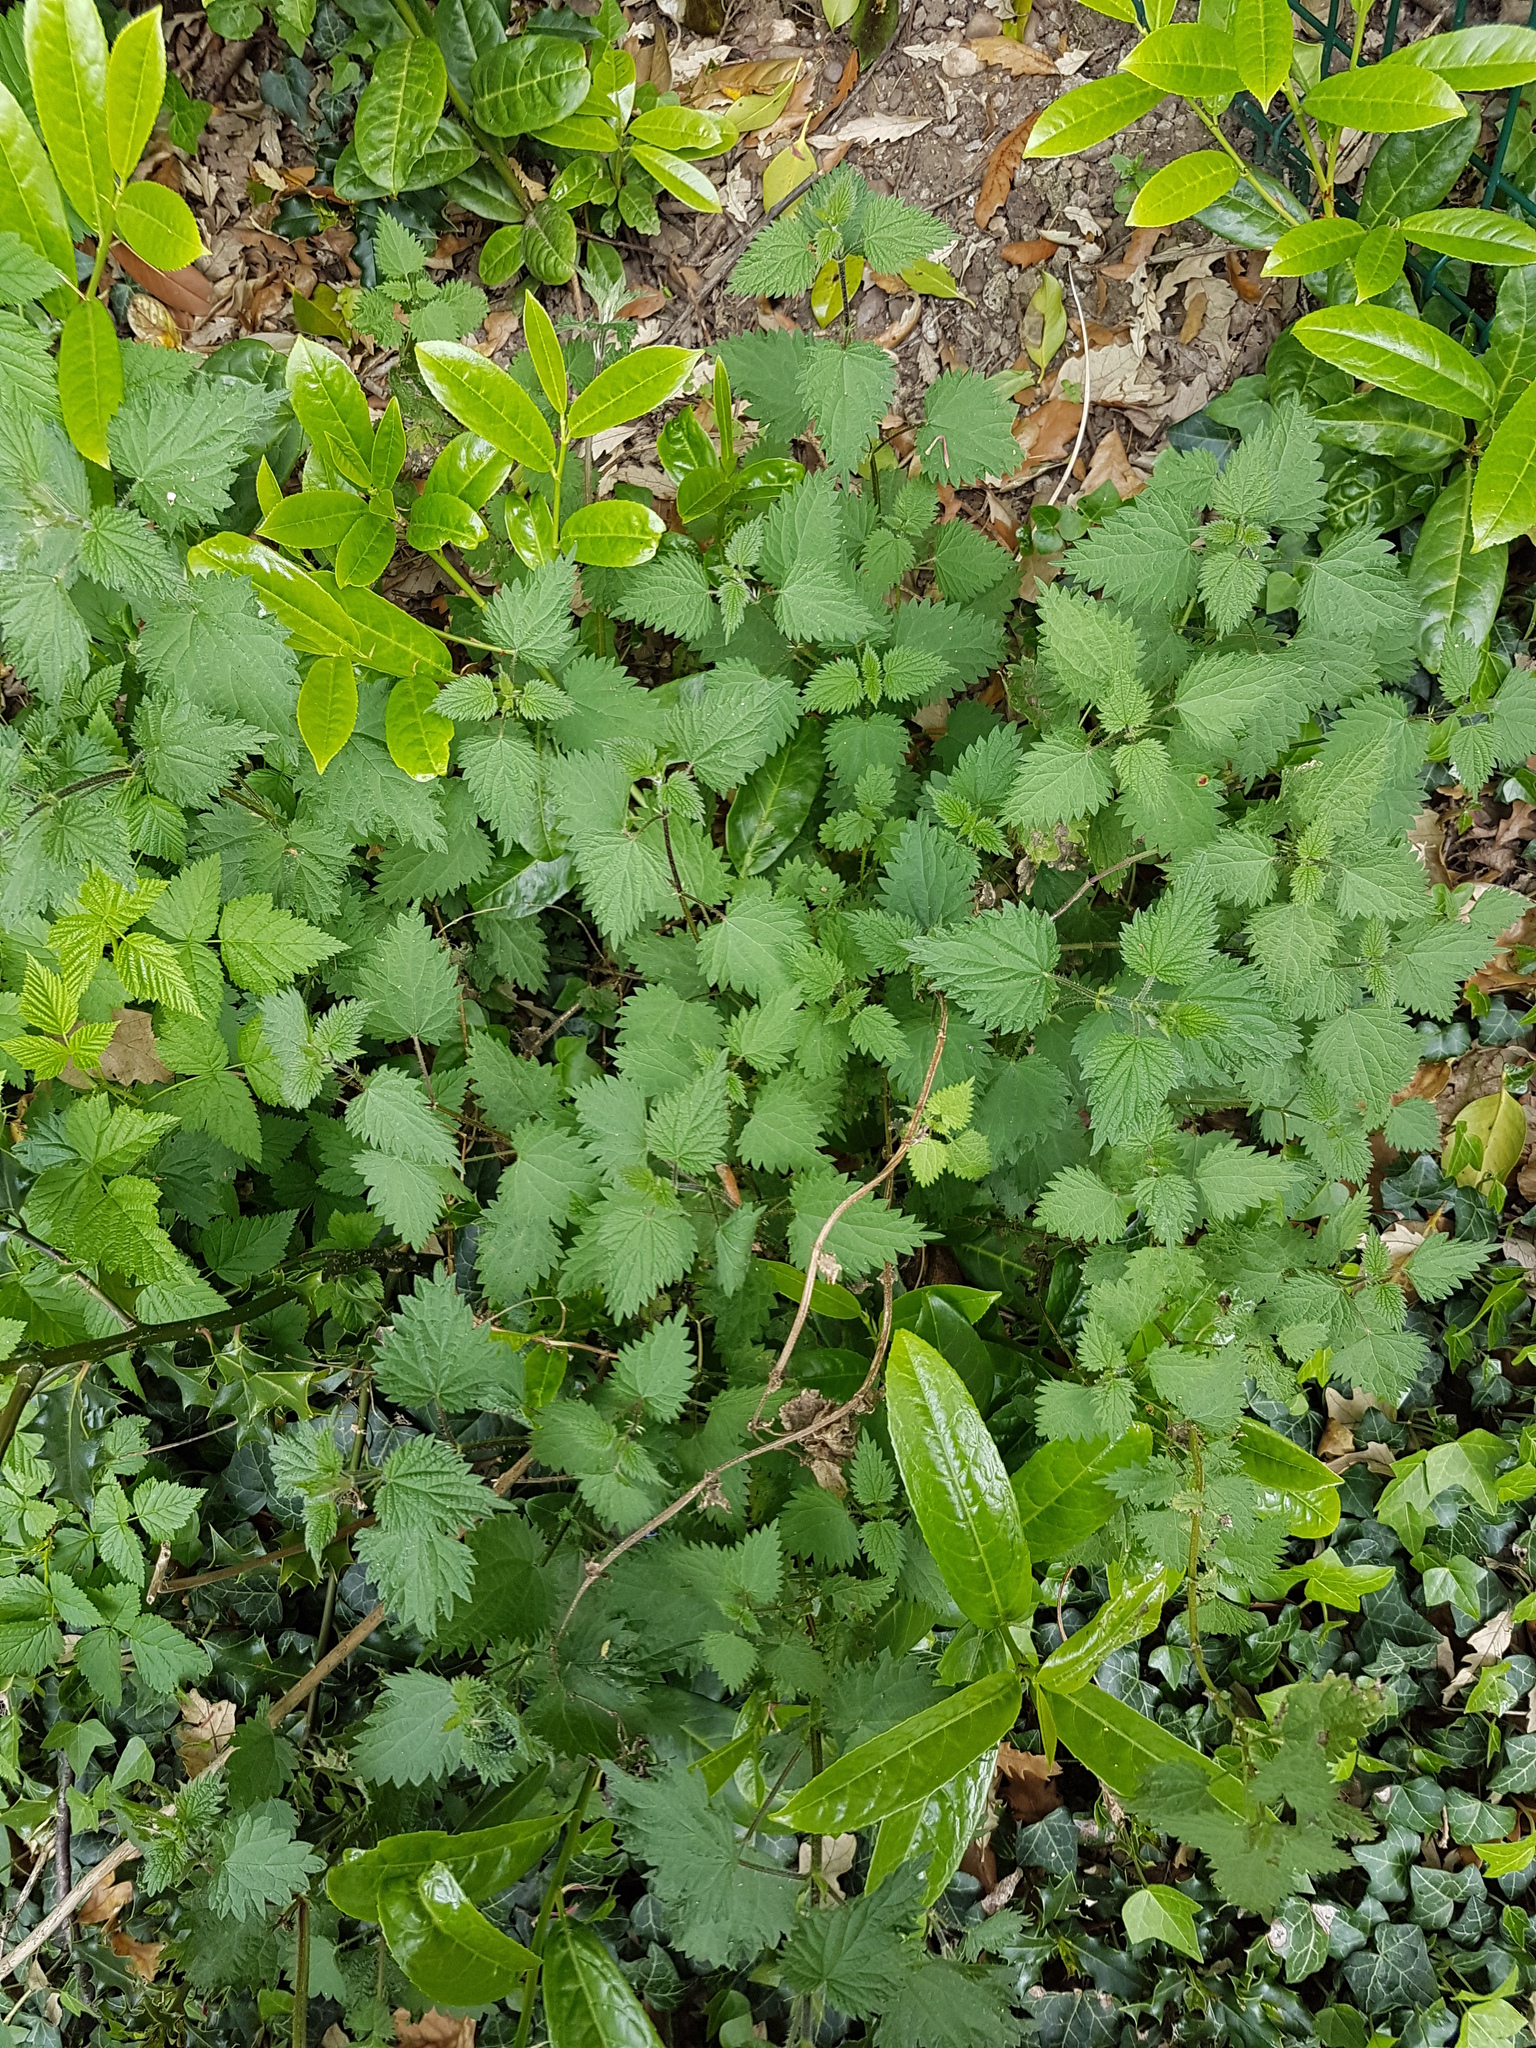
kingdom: Plantae
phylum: Tracheophyta
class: Magnoliopsida
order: Rosales
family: Urticaceae
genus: Urtica
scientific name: Urtica dioica
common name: Common nettle
